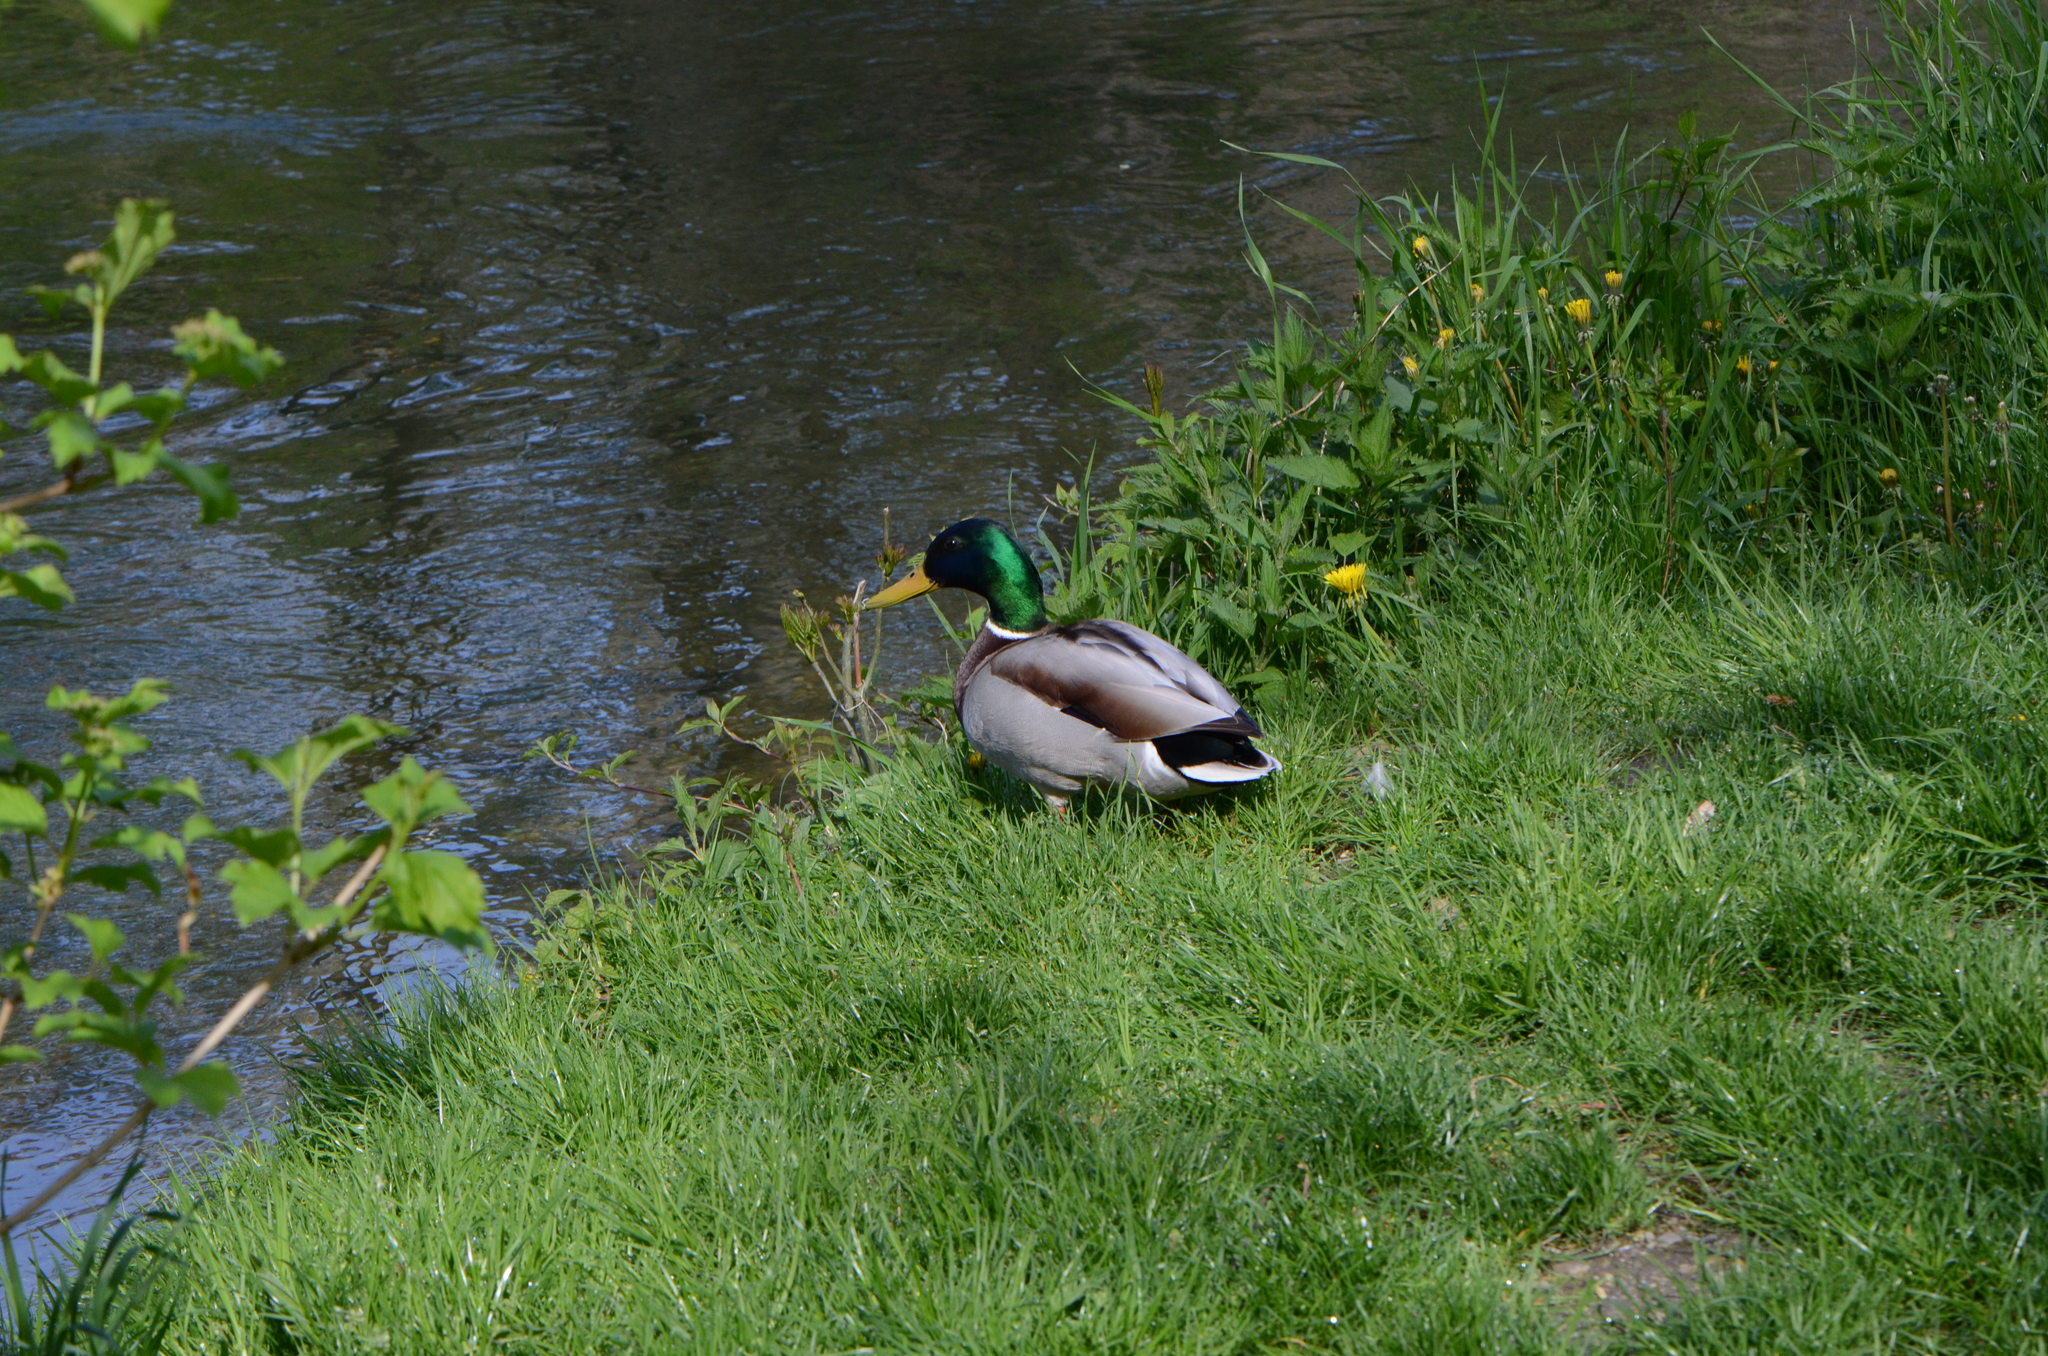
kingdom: Animalia
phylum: Chordata
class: Aves
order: Anseriformes
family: Anatidae
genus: Anas
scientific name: Anas platyrhynchos
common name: Mallard
